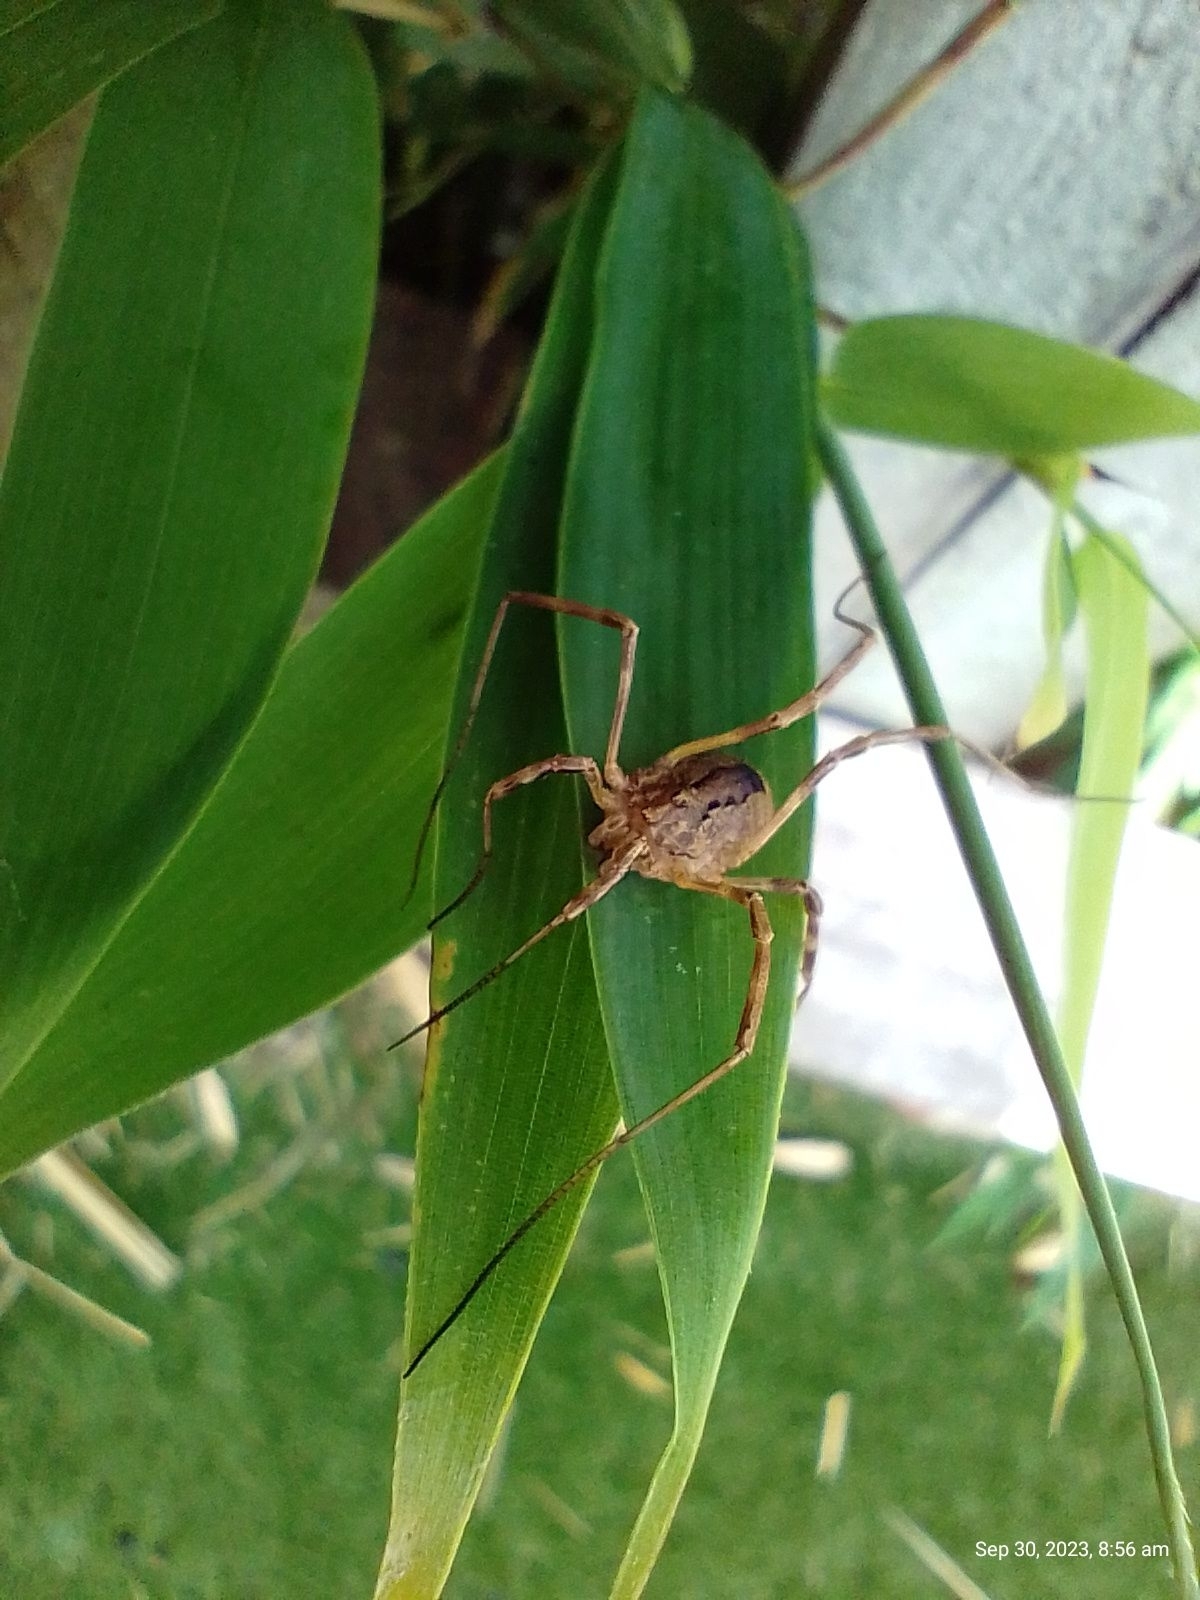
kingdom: Animalia
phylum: Arthropoda
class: Arachnida
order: Opiliones
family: Phalangiidae
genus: Odiellus
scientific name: Odiellus spinosus
